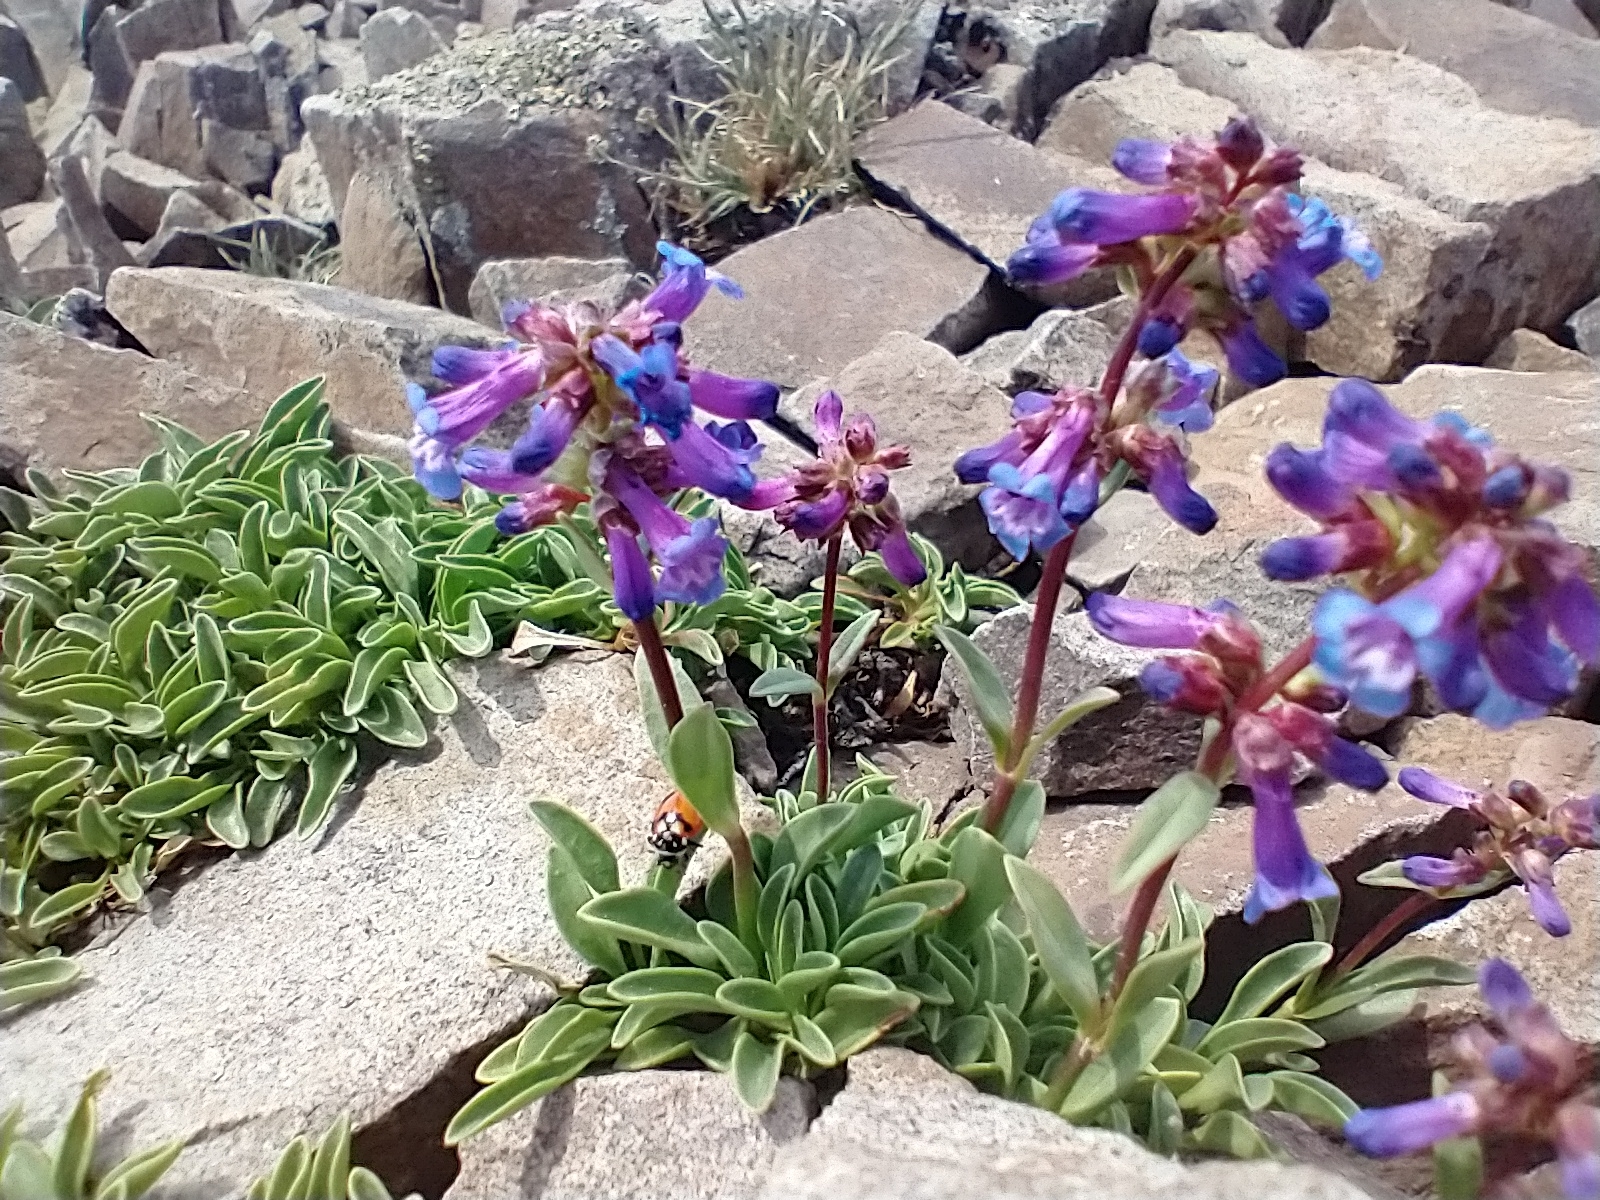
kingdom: Plantae
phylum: Tracheophyta
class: Magnoliopsida
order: Lamiales
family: Plantaginaceae
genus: Penstemon
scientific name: Penstemon spatulatus
